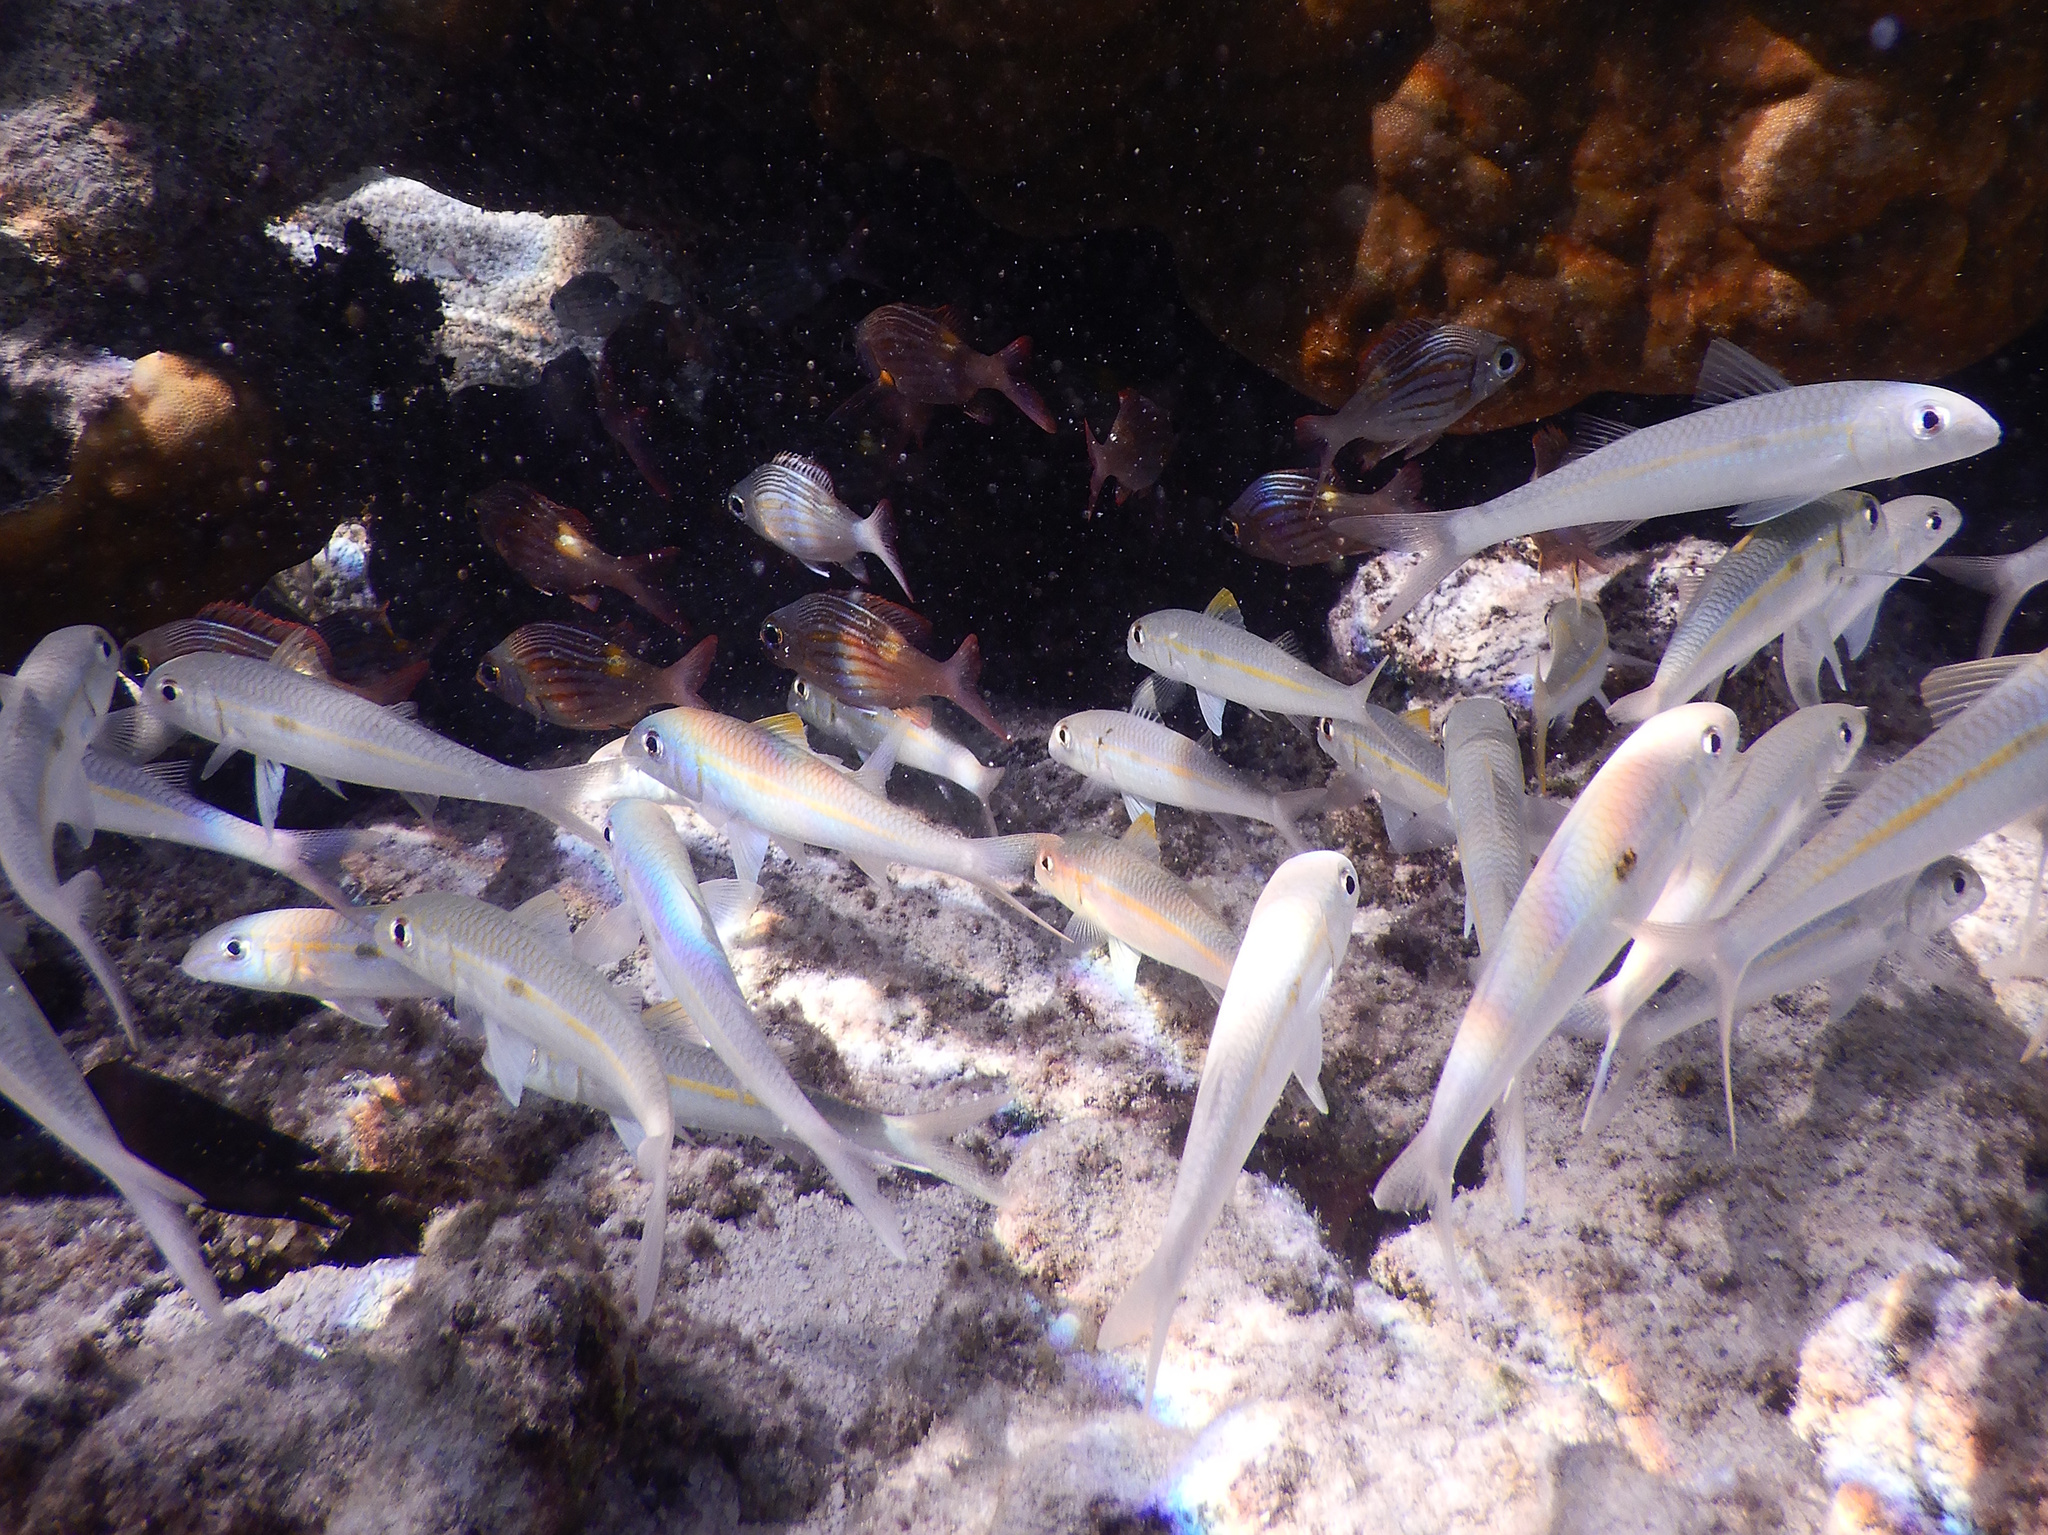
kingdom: Animalia
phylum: Chordata
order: Perciformes
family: Mullidae
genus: Mulloidichthys
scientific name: Mulloidichthys flavolineatus
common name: Yellowstripe goatfish
